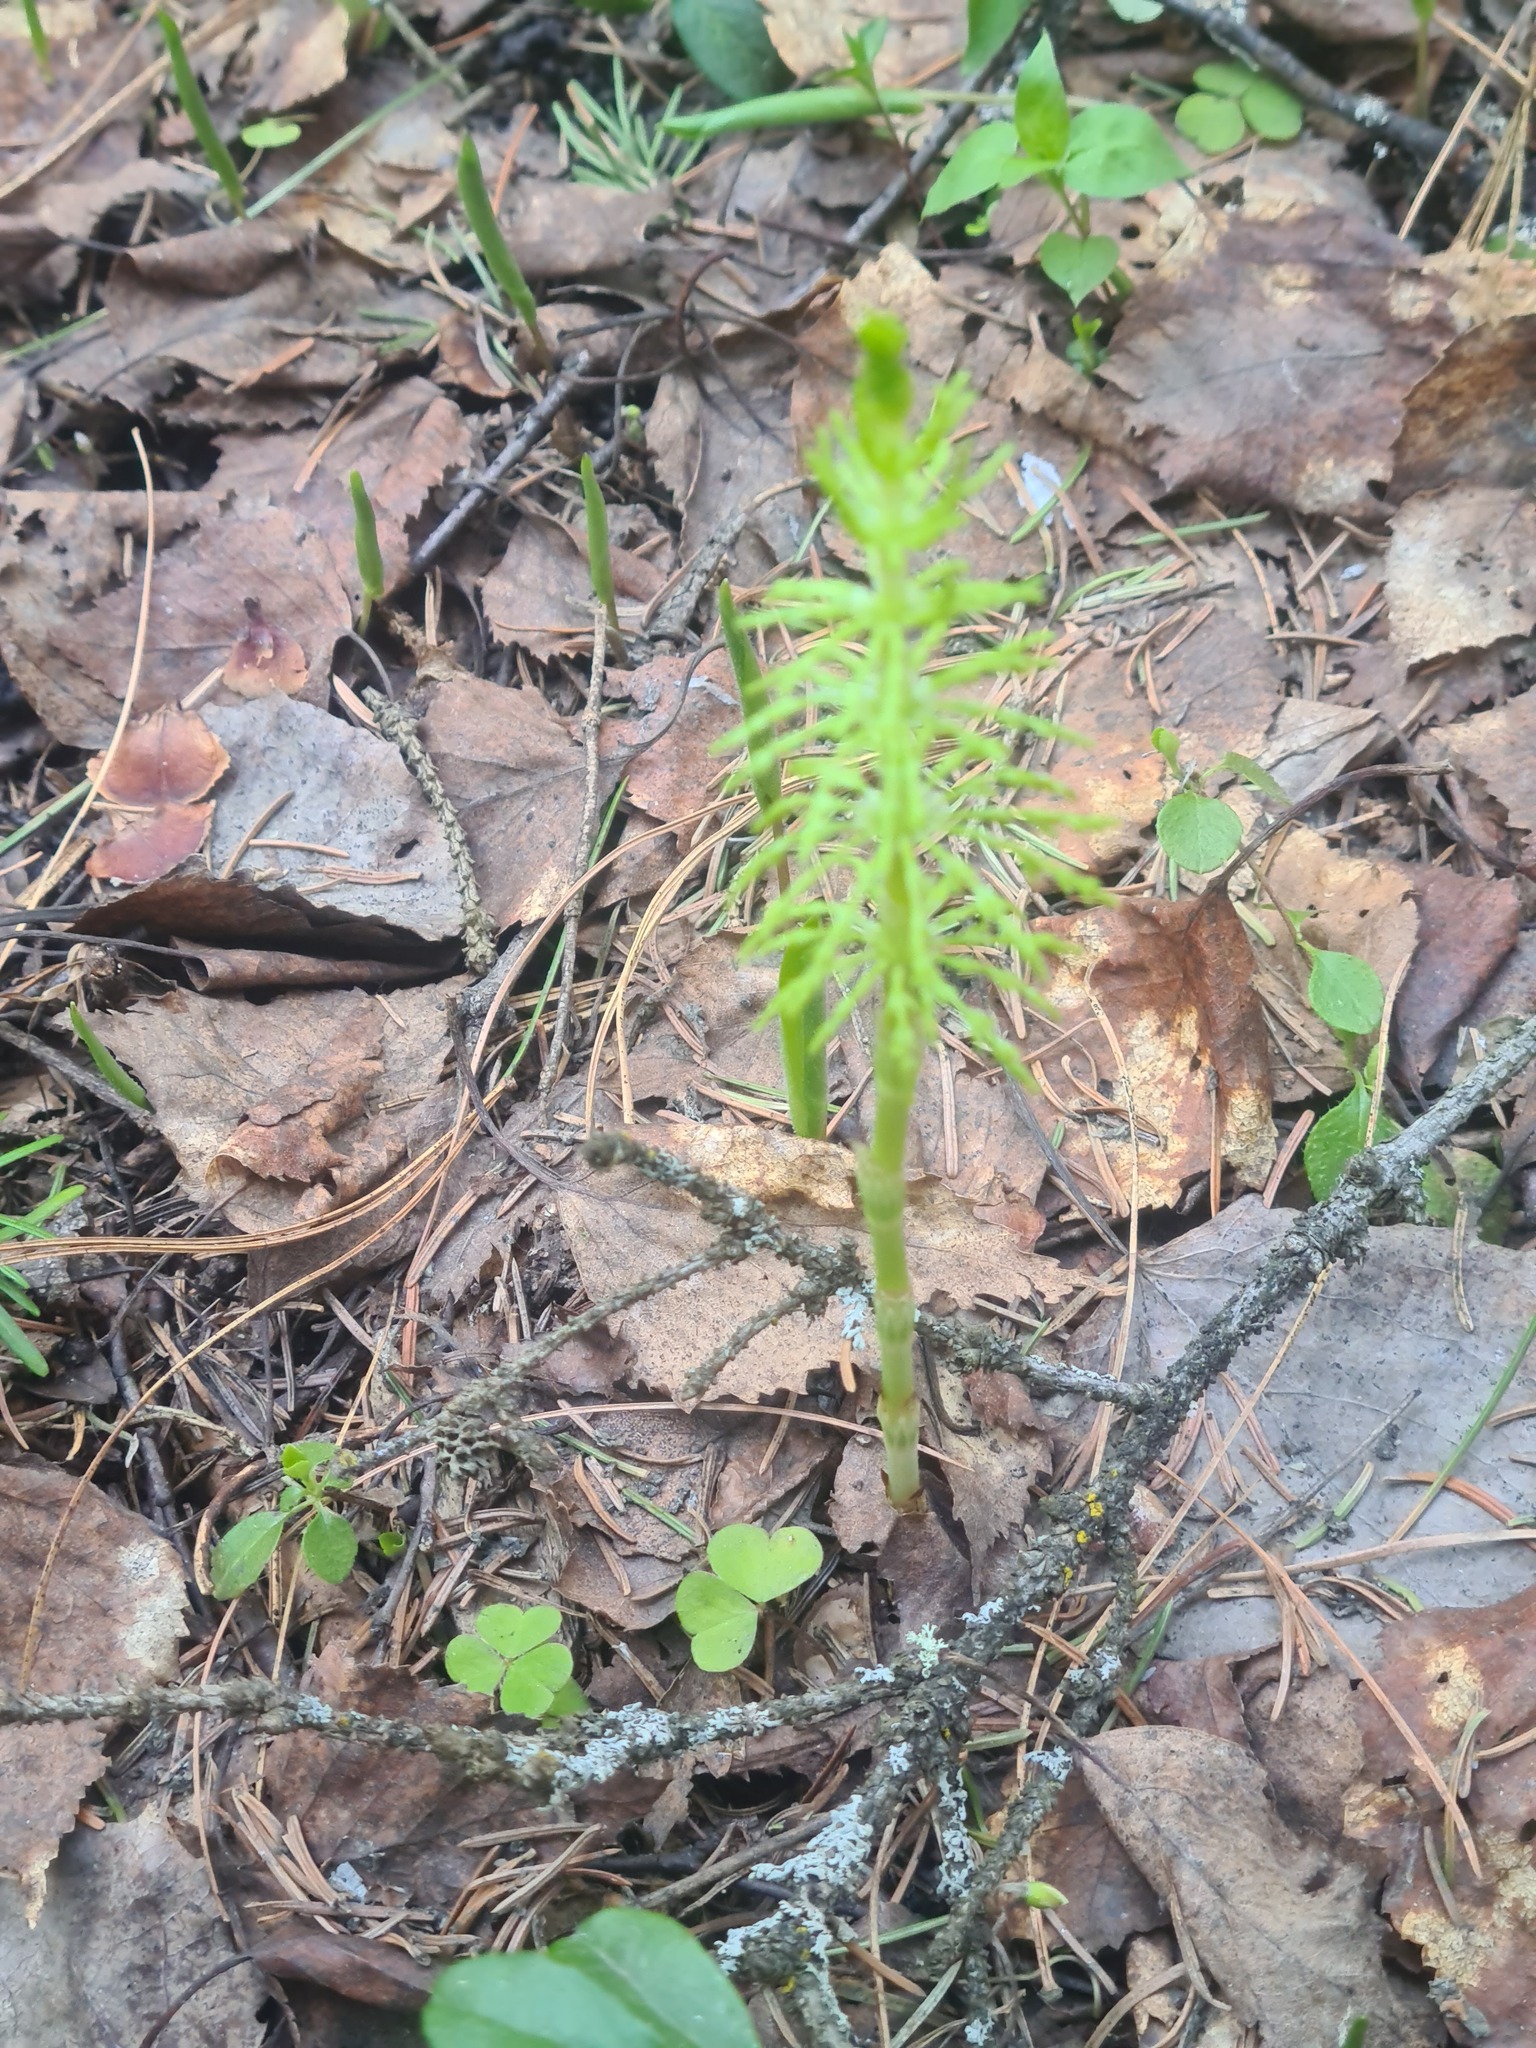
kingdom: Plantae
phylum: Tracheophyta
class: Polypodiopsida
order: Equisetales
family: Equisetaceae
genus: Equisetum
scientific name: Equisetum sylvaticum
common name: Wood horsetail
